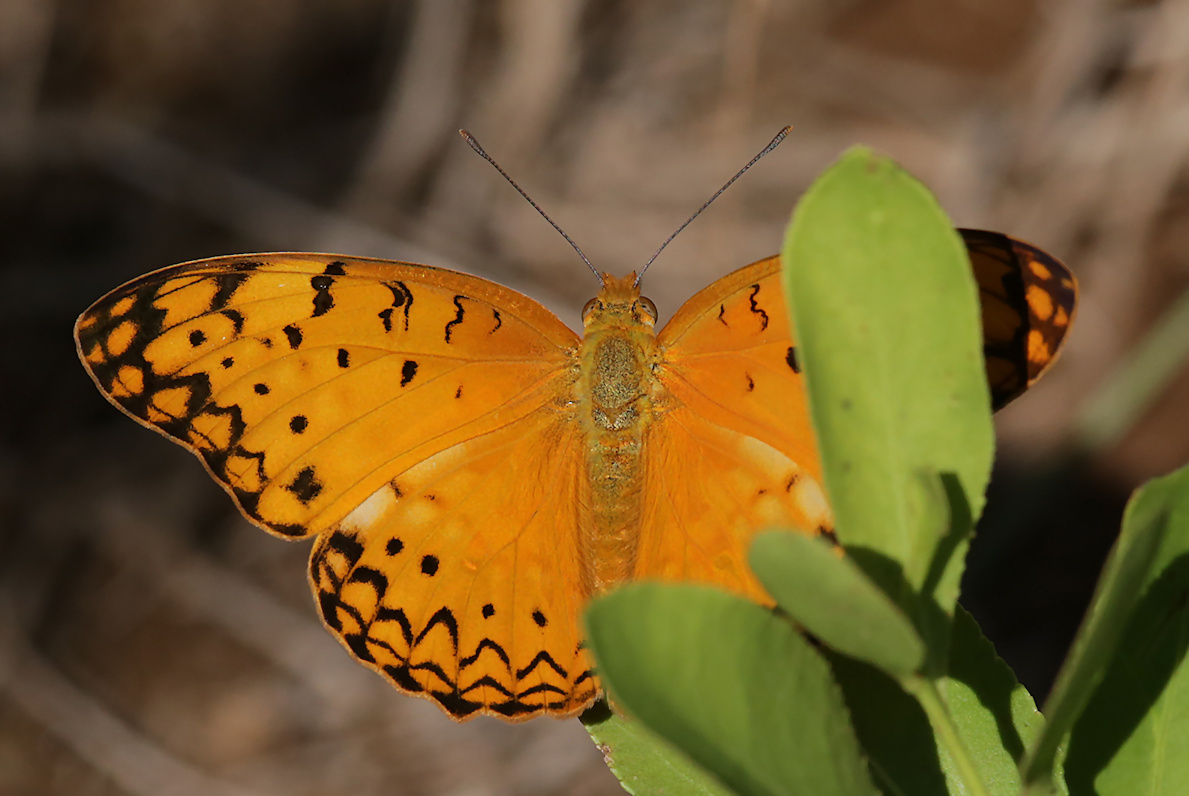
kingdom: Animalia
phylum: Arthropoda
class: Insecta
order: Lepidoptera
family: Nymphalidae
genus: Phalanta
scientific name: Phalanta phalantha
